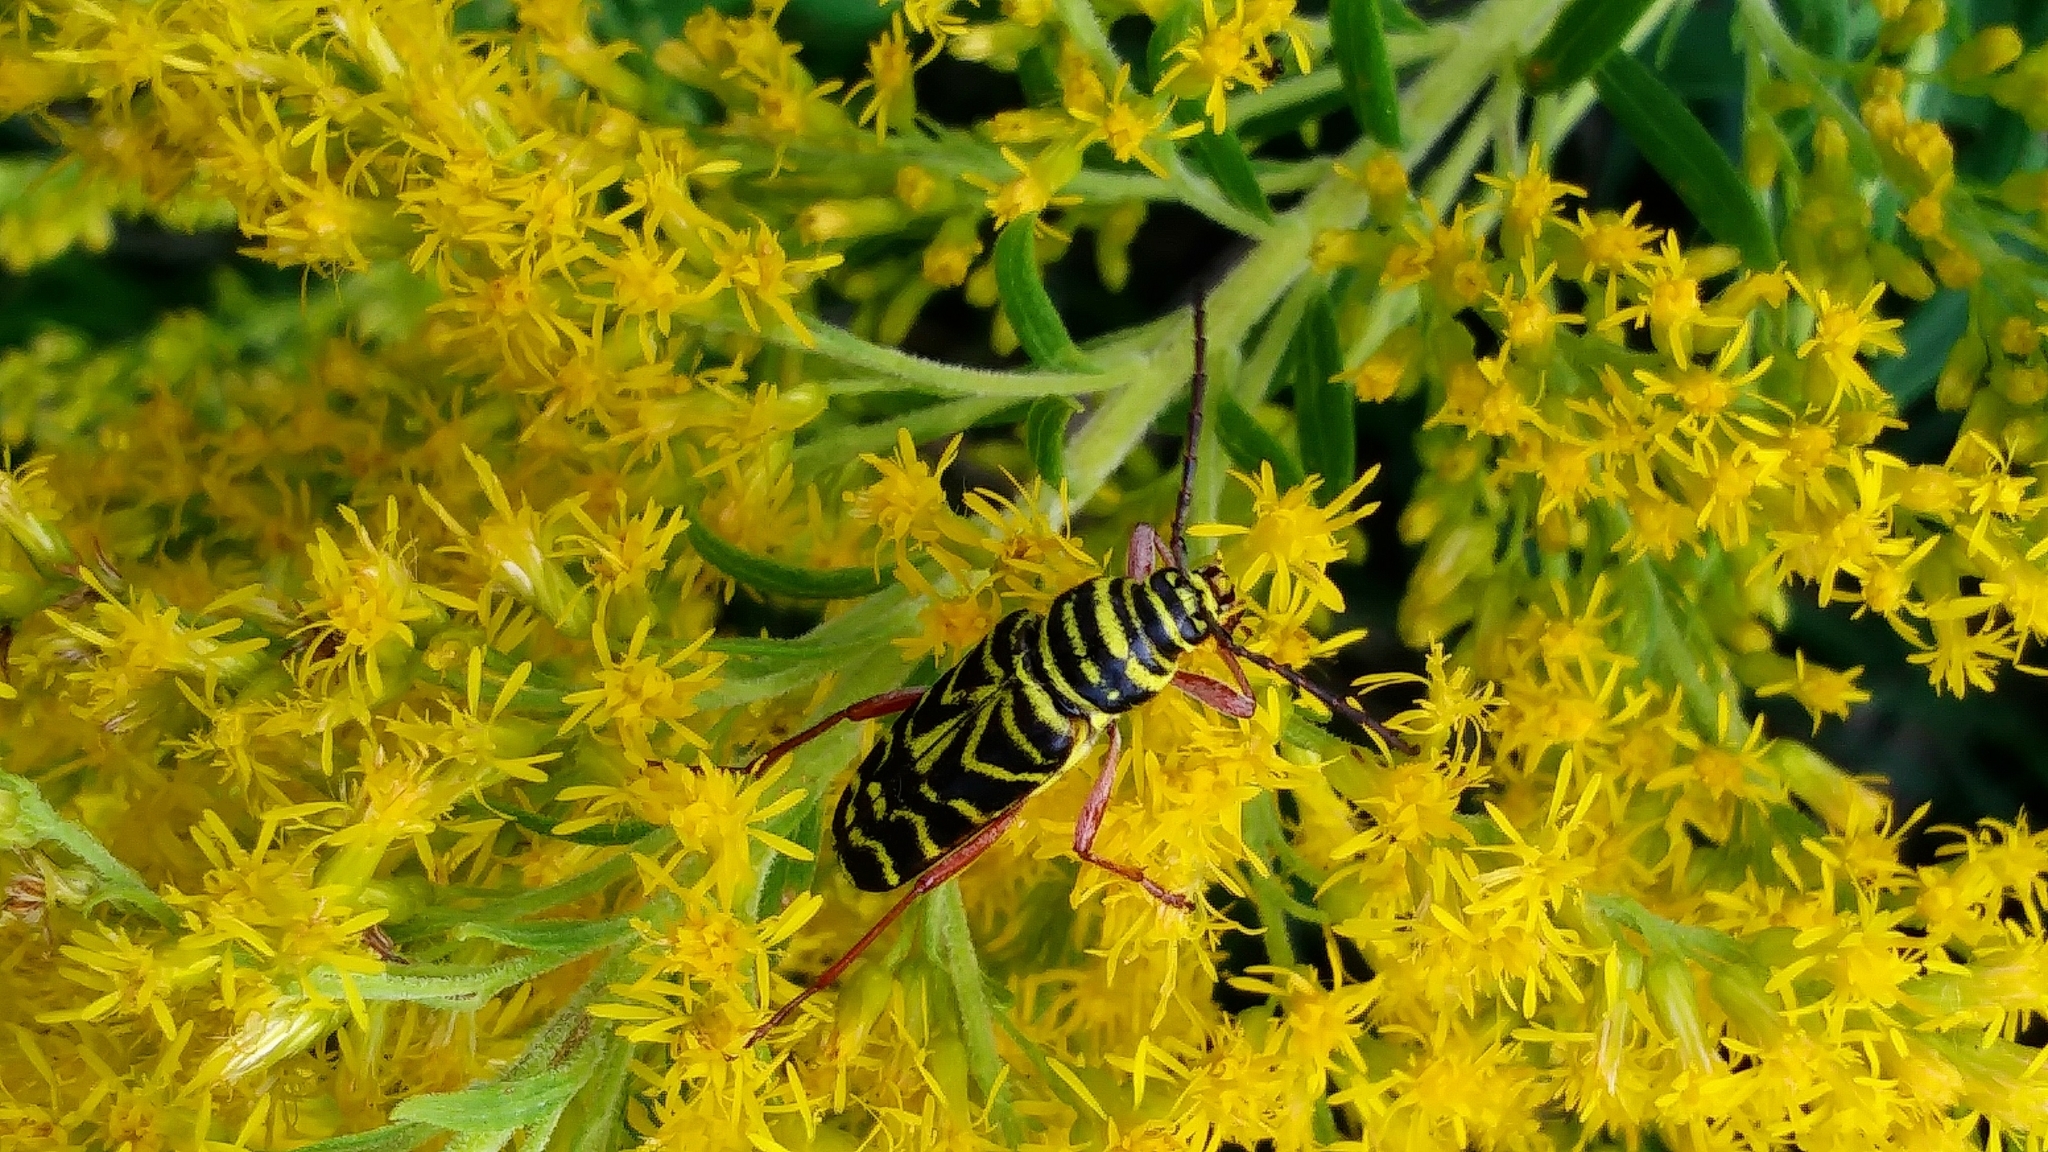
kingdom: Animalia
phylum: Arthropoda
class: Insecta
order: Coleoptera
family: Cerambycidae
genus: Megacyllene
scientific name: Megacyllene robiniae
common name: Locust borer
